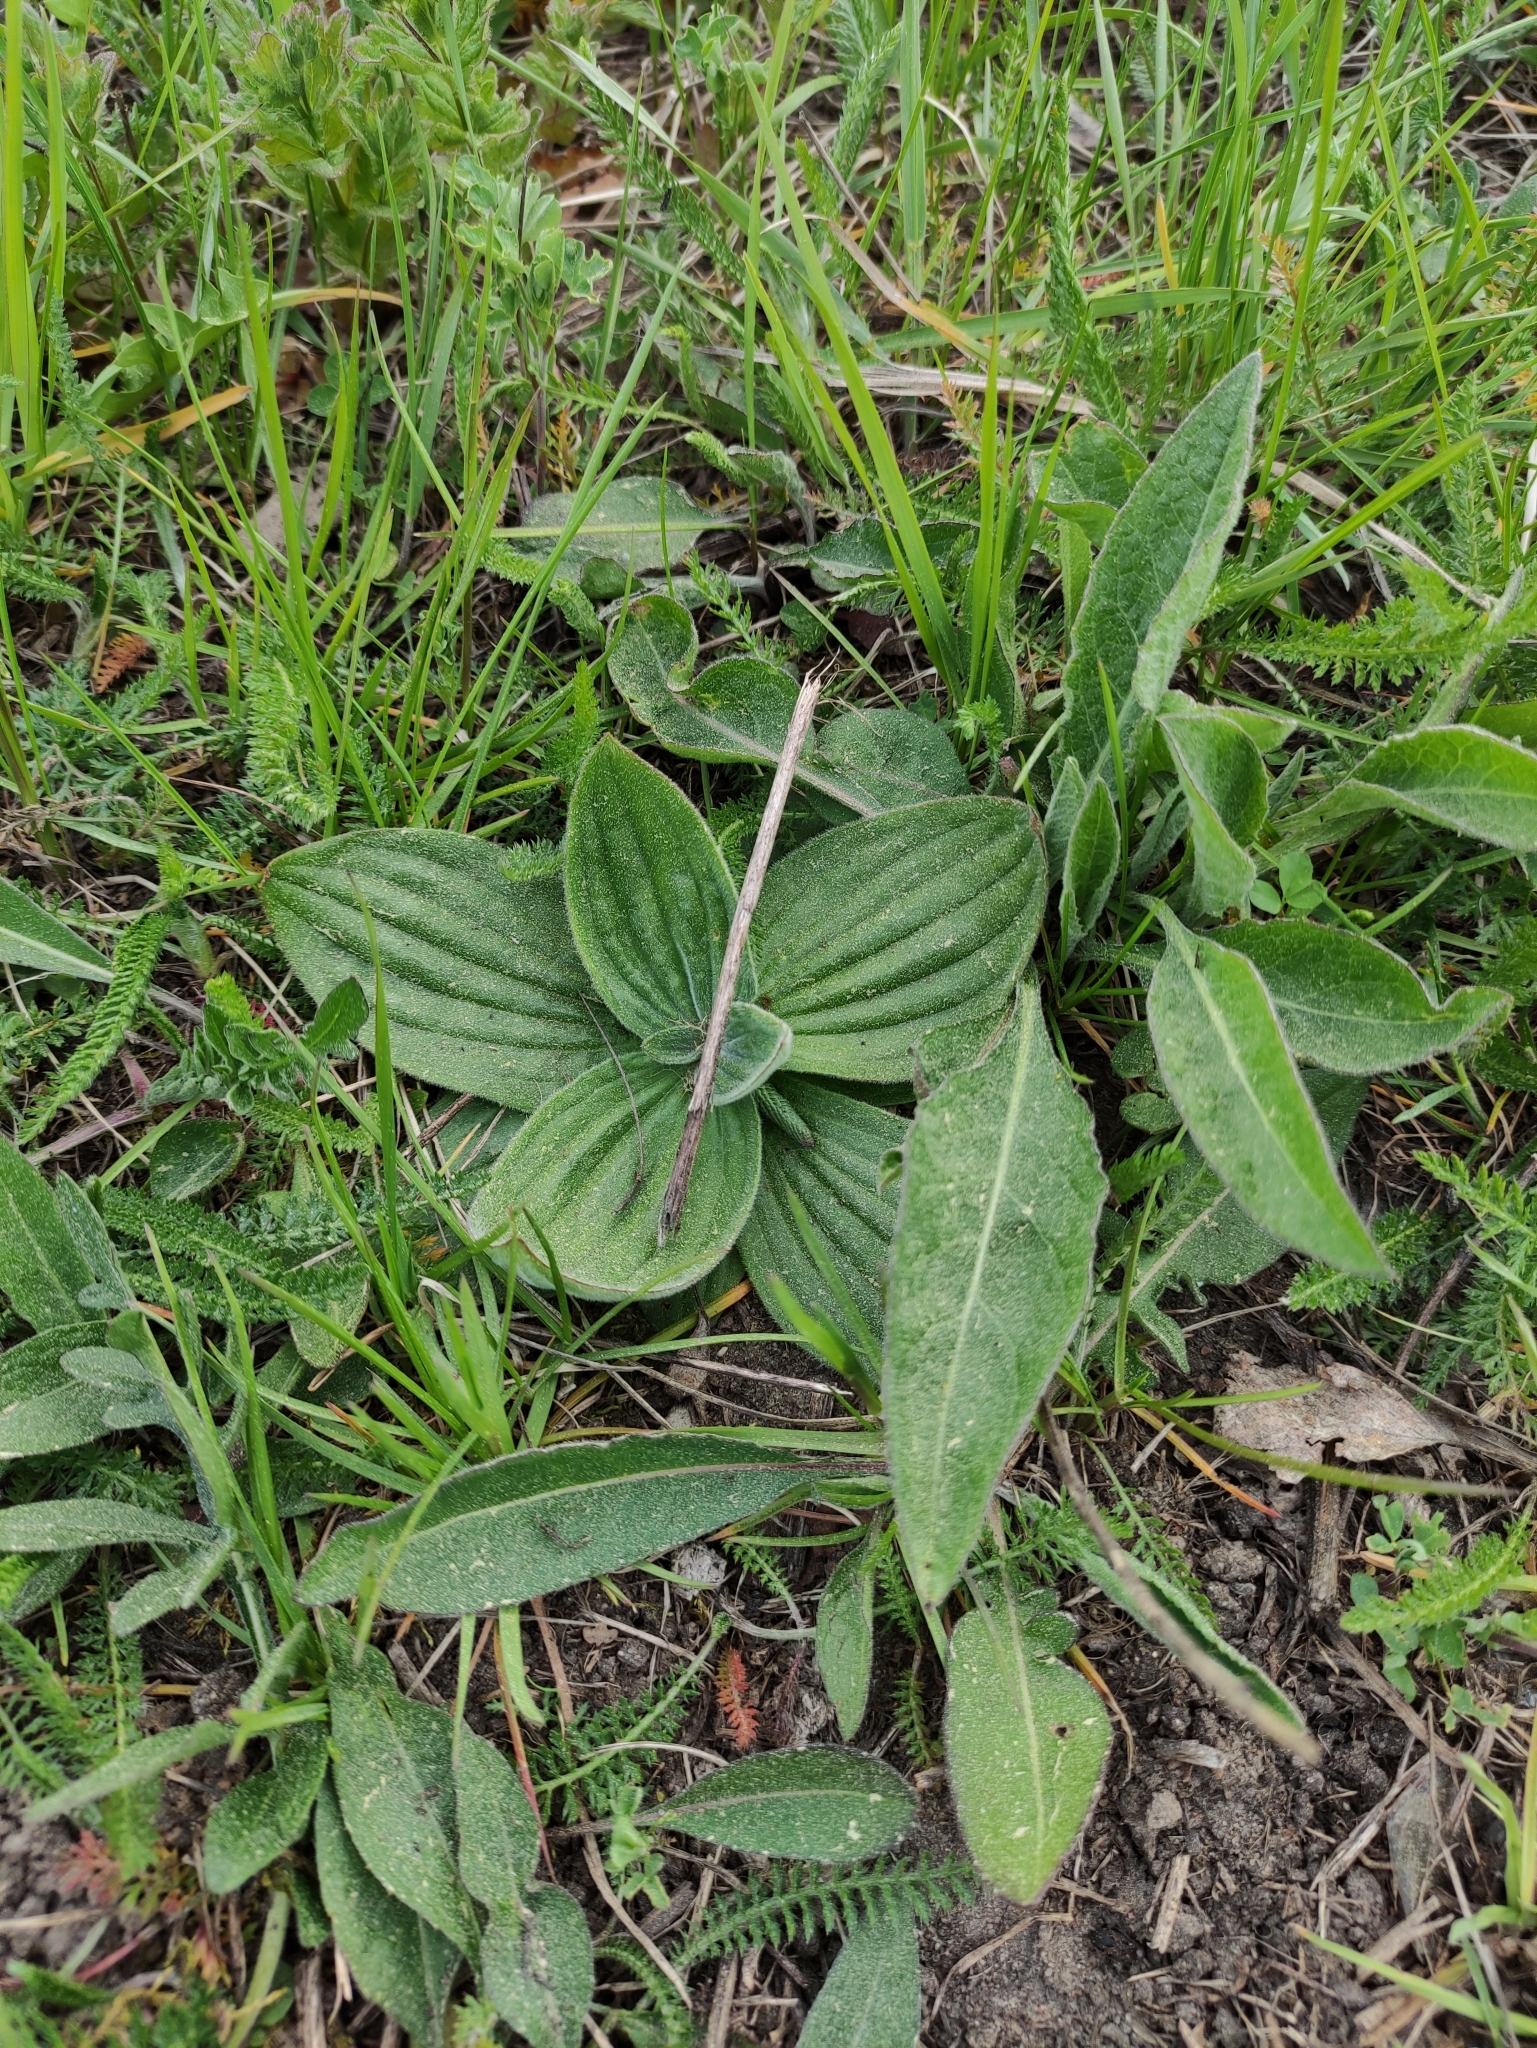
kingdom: Plantae
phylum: Tracheophyta
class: Magnoliopsida
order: Lamiales
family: Plantaginaceae
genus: Plantago
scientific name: Plantago media
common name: Hoary plantain
